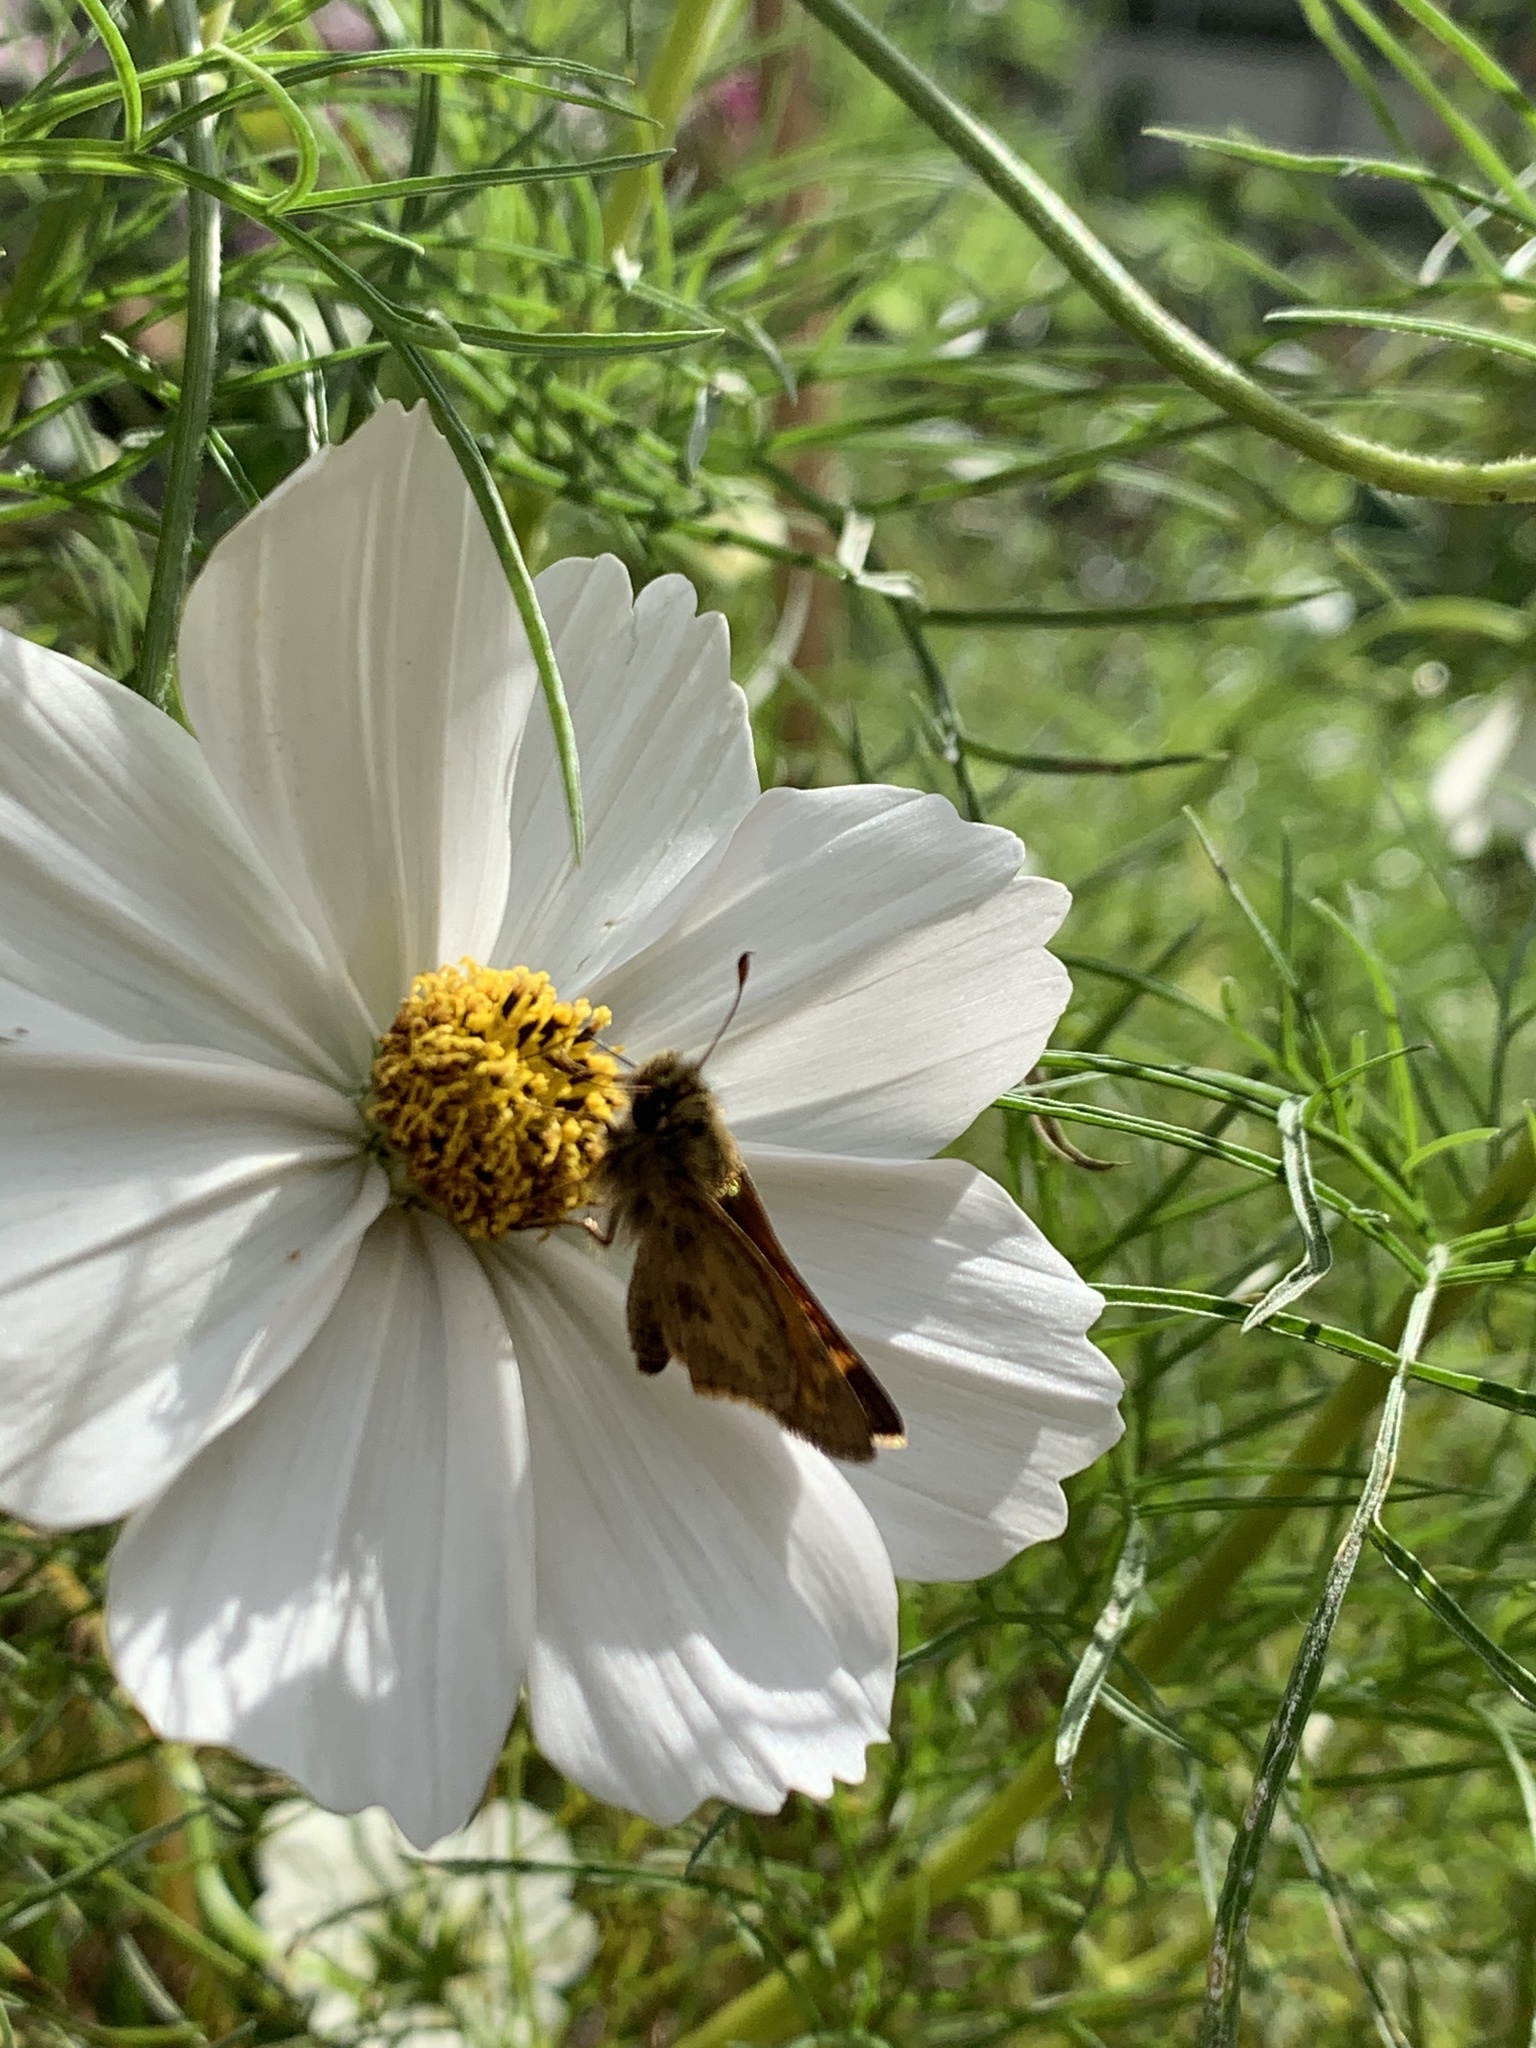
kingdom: Animalia
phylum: Arthropoda
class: Insecta
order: Lepidoptera
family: Hesperiidae
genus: Atalopedes
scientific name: Atalopedes
